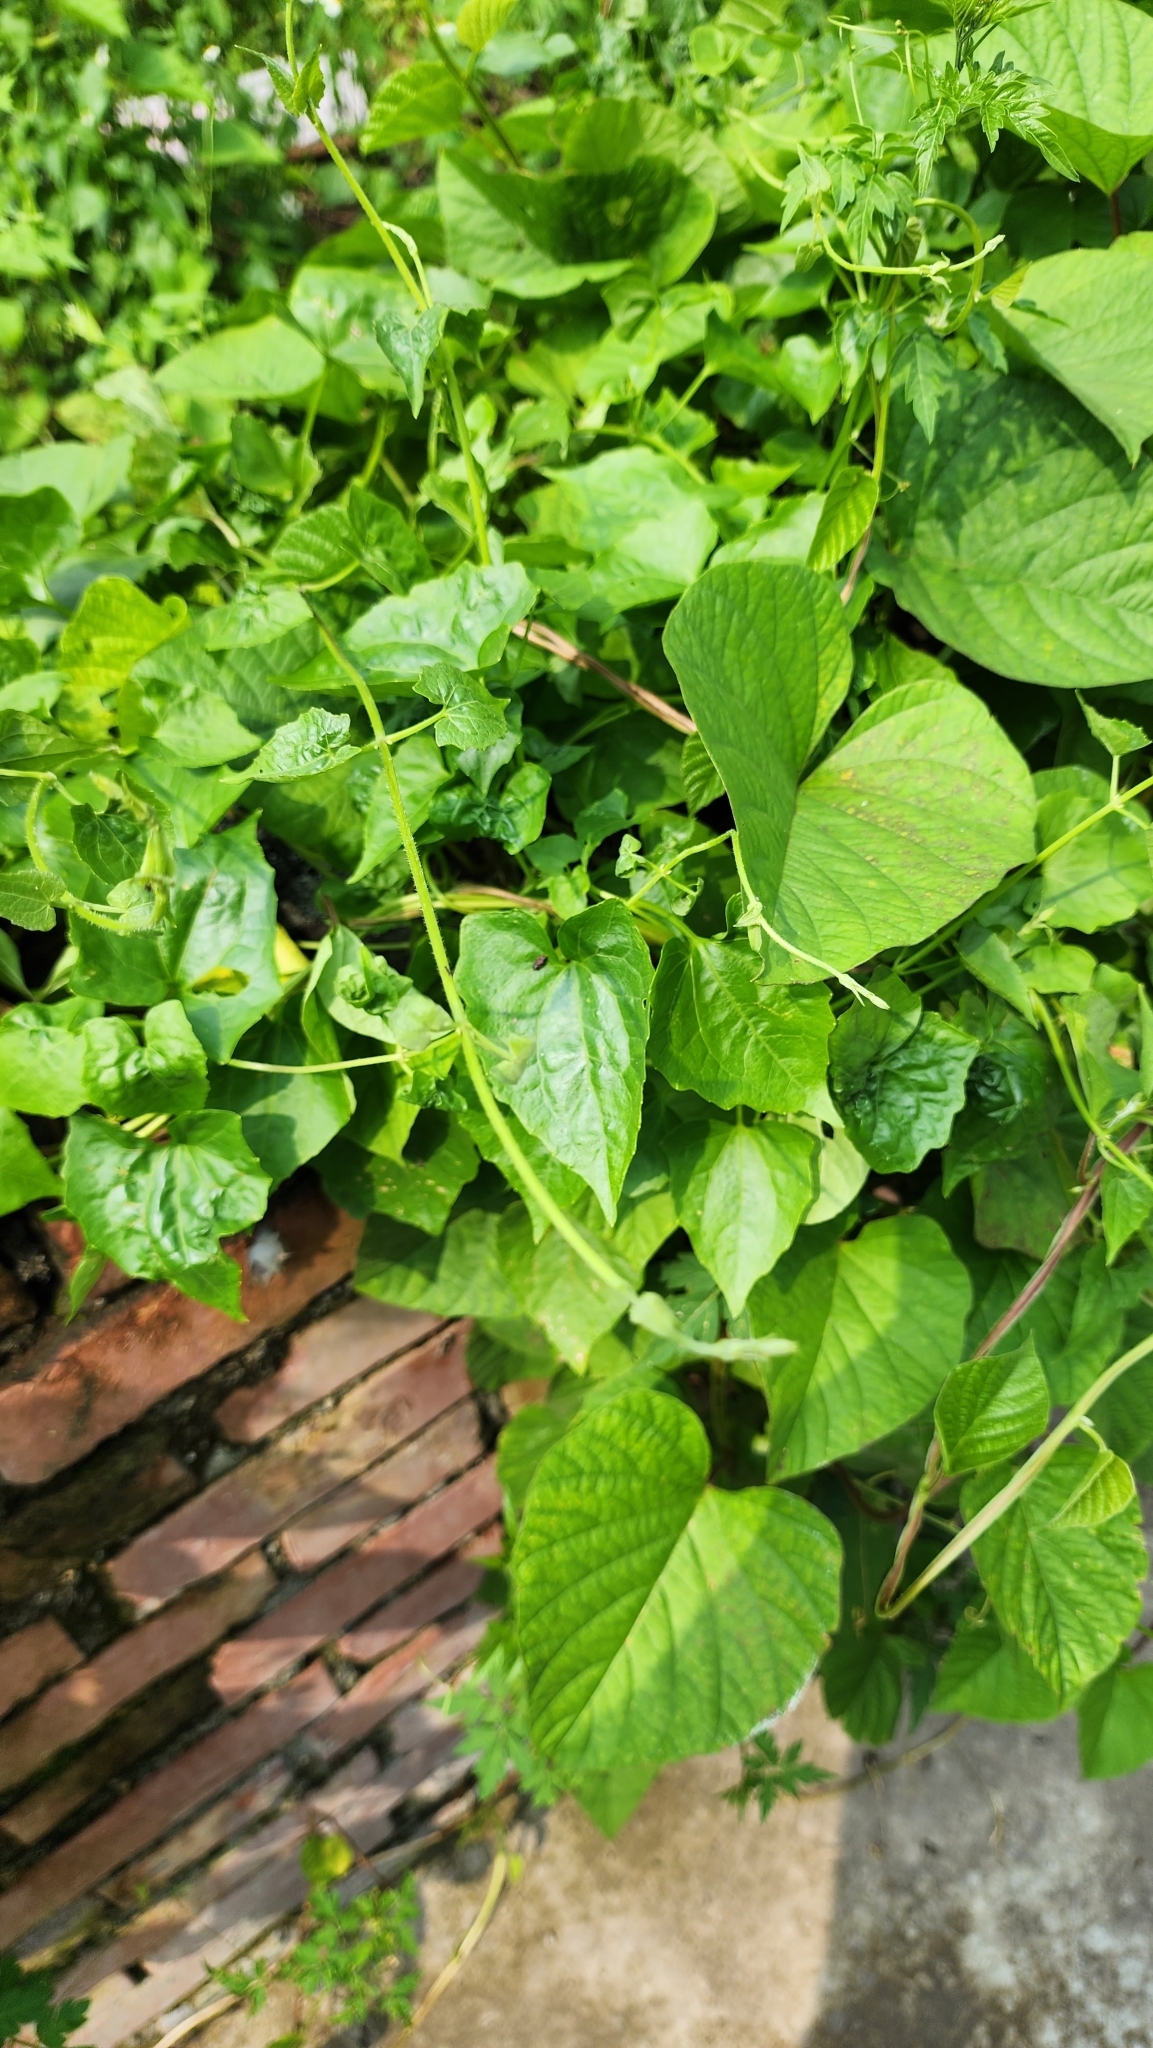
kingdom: Plantae
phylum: Tracheophyta
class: Magnoliopsida
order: Asterales
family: Asteraceae
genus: Mikania
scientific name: Mikania micrantha
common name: Mile-a-minute
